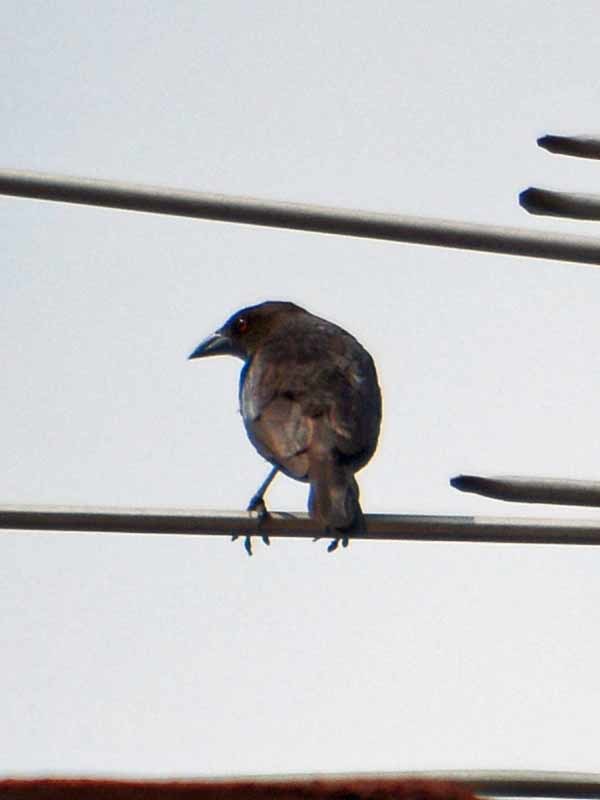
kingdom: Animalia
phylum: Chordata
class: Aves
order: Passeriformes
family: Icteridae
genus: Molothrus
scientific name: Molothrus aeneus
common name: Bronzed cowbird
